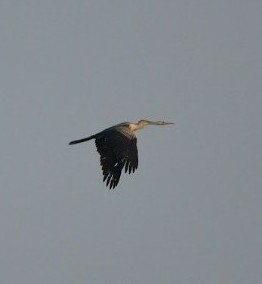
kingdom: Animalia
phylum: Chordata
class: Aves
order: Suliformes
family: Anhingidae
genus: Anhinga
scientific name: Anhinga melanogaster
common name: Oriental darter
